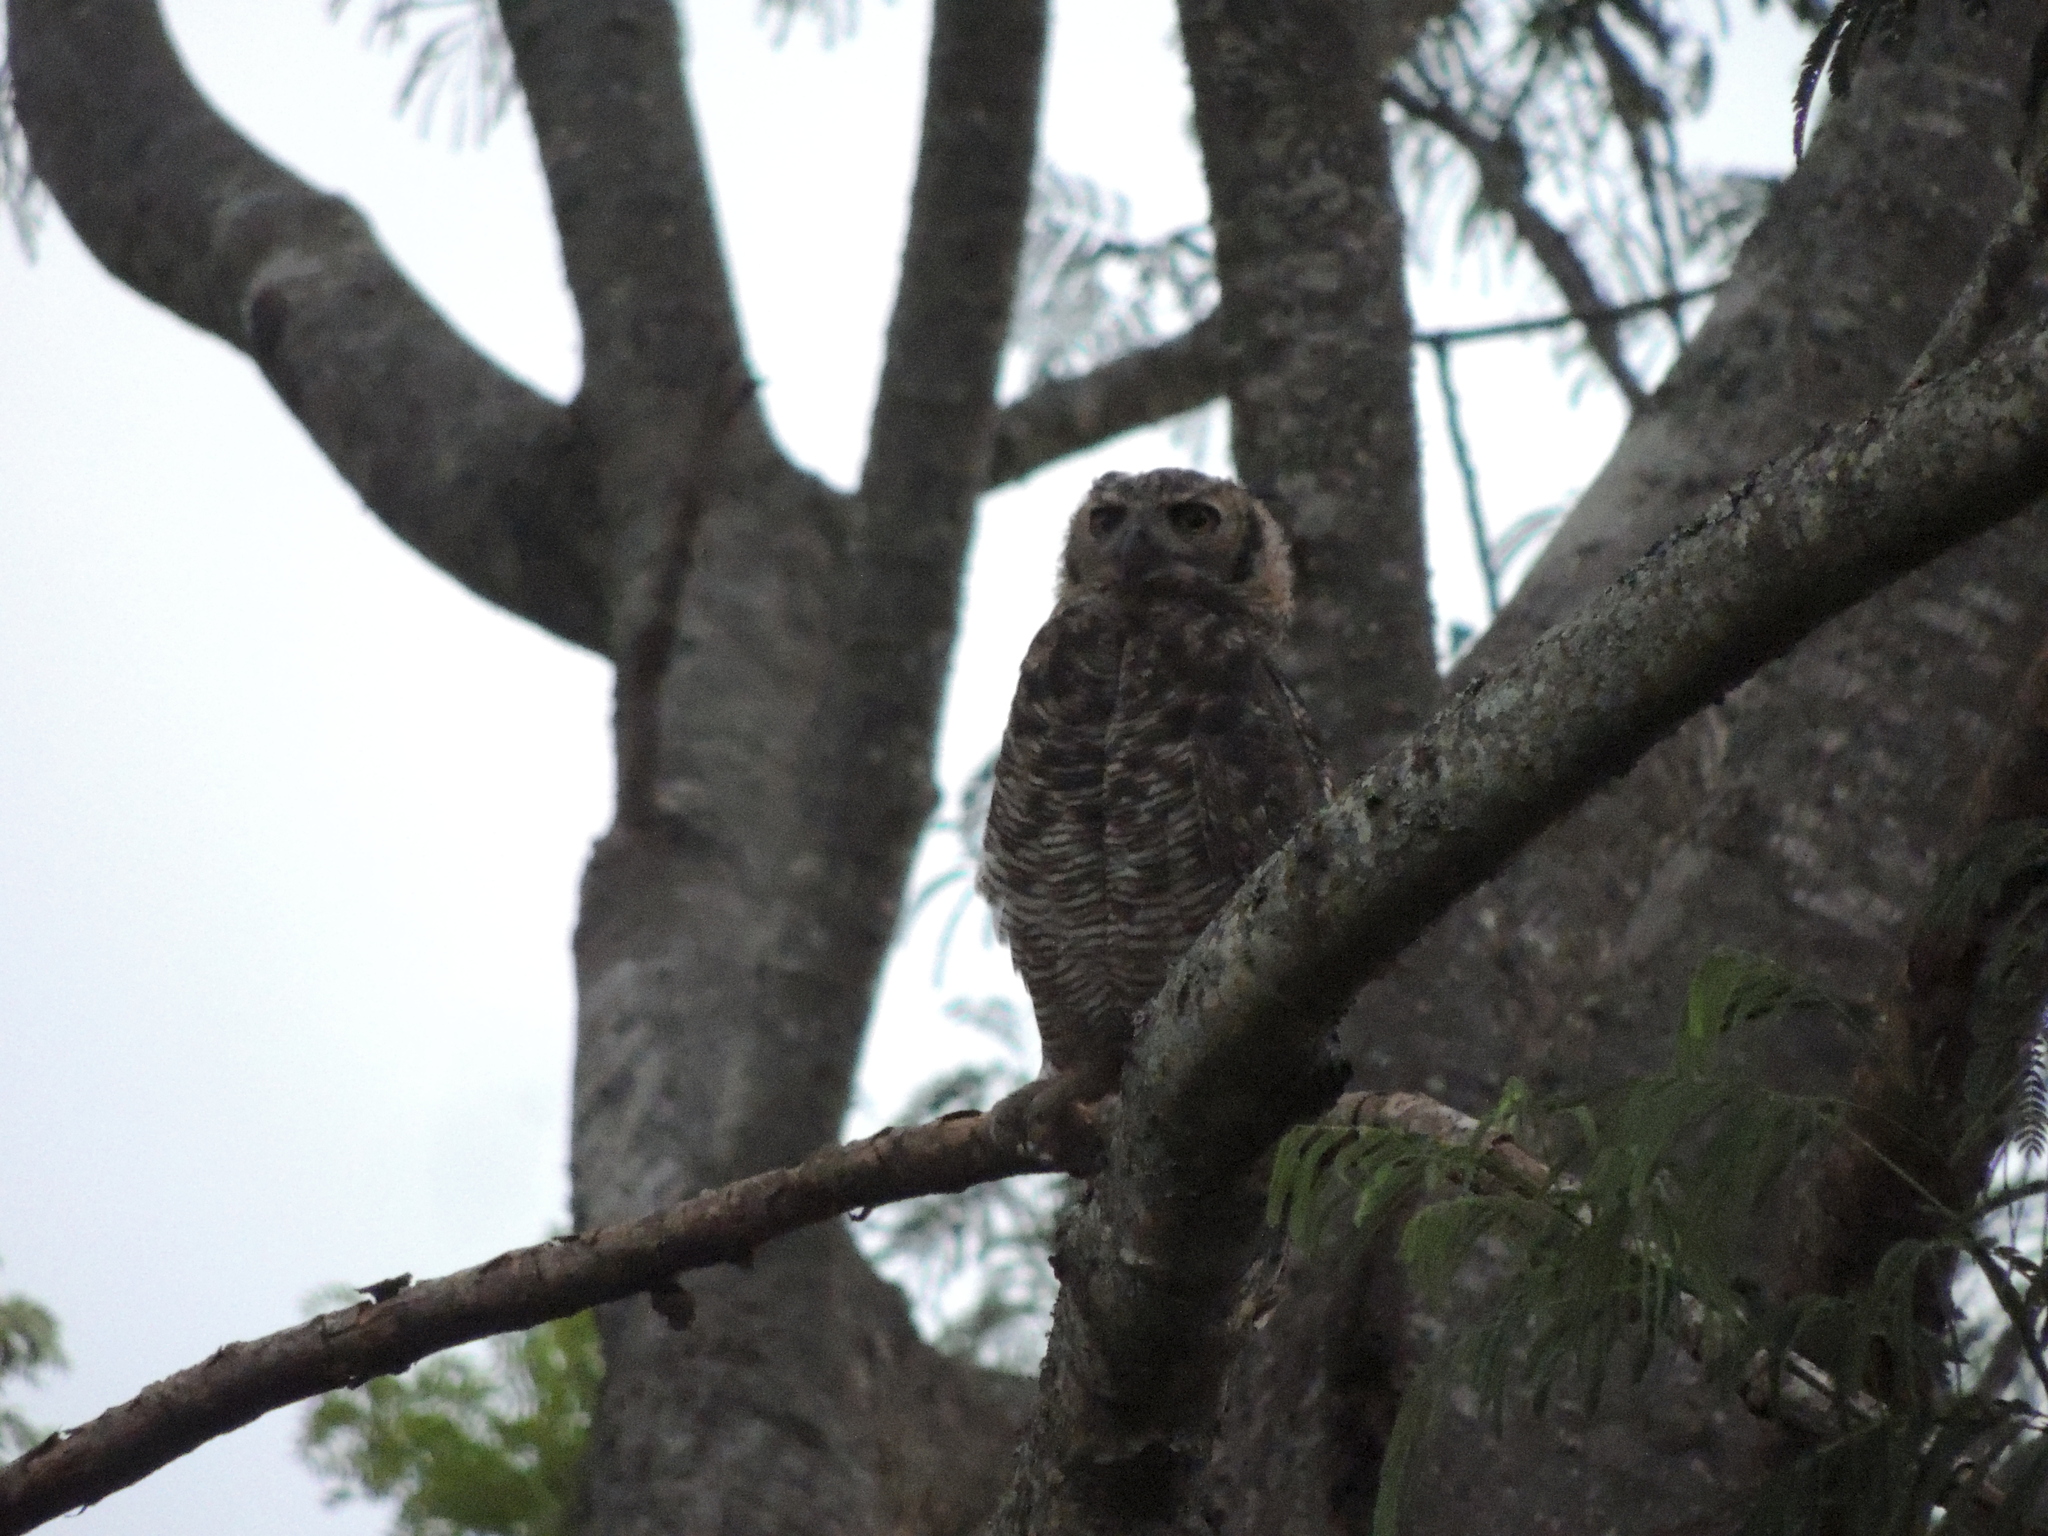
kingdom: Animalia
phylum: Chordata
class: Aves
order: Strigiformes
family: Strigidae
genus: Bubo
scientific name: Bubo virginianus
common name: Great horned owl
